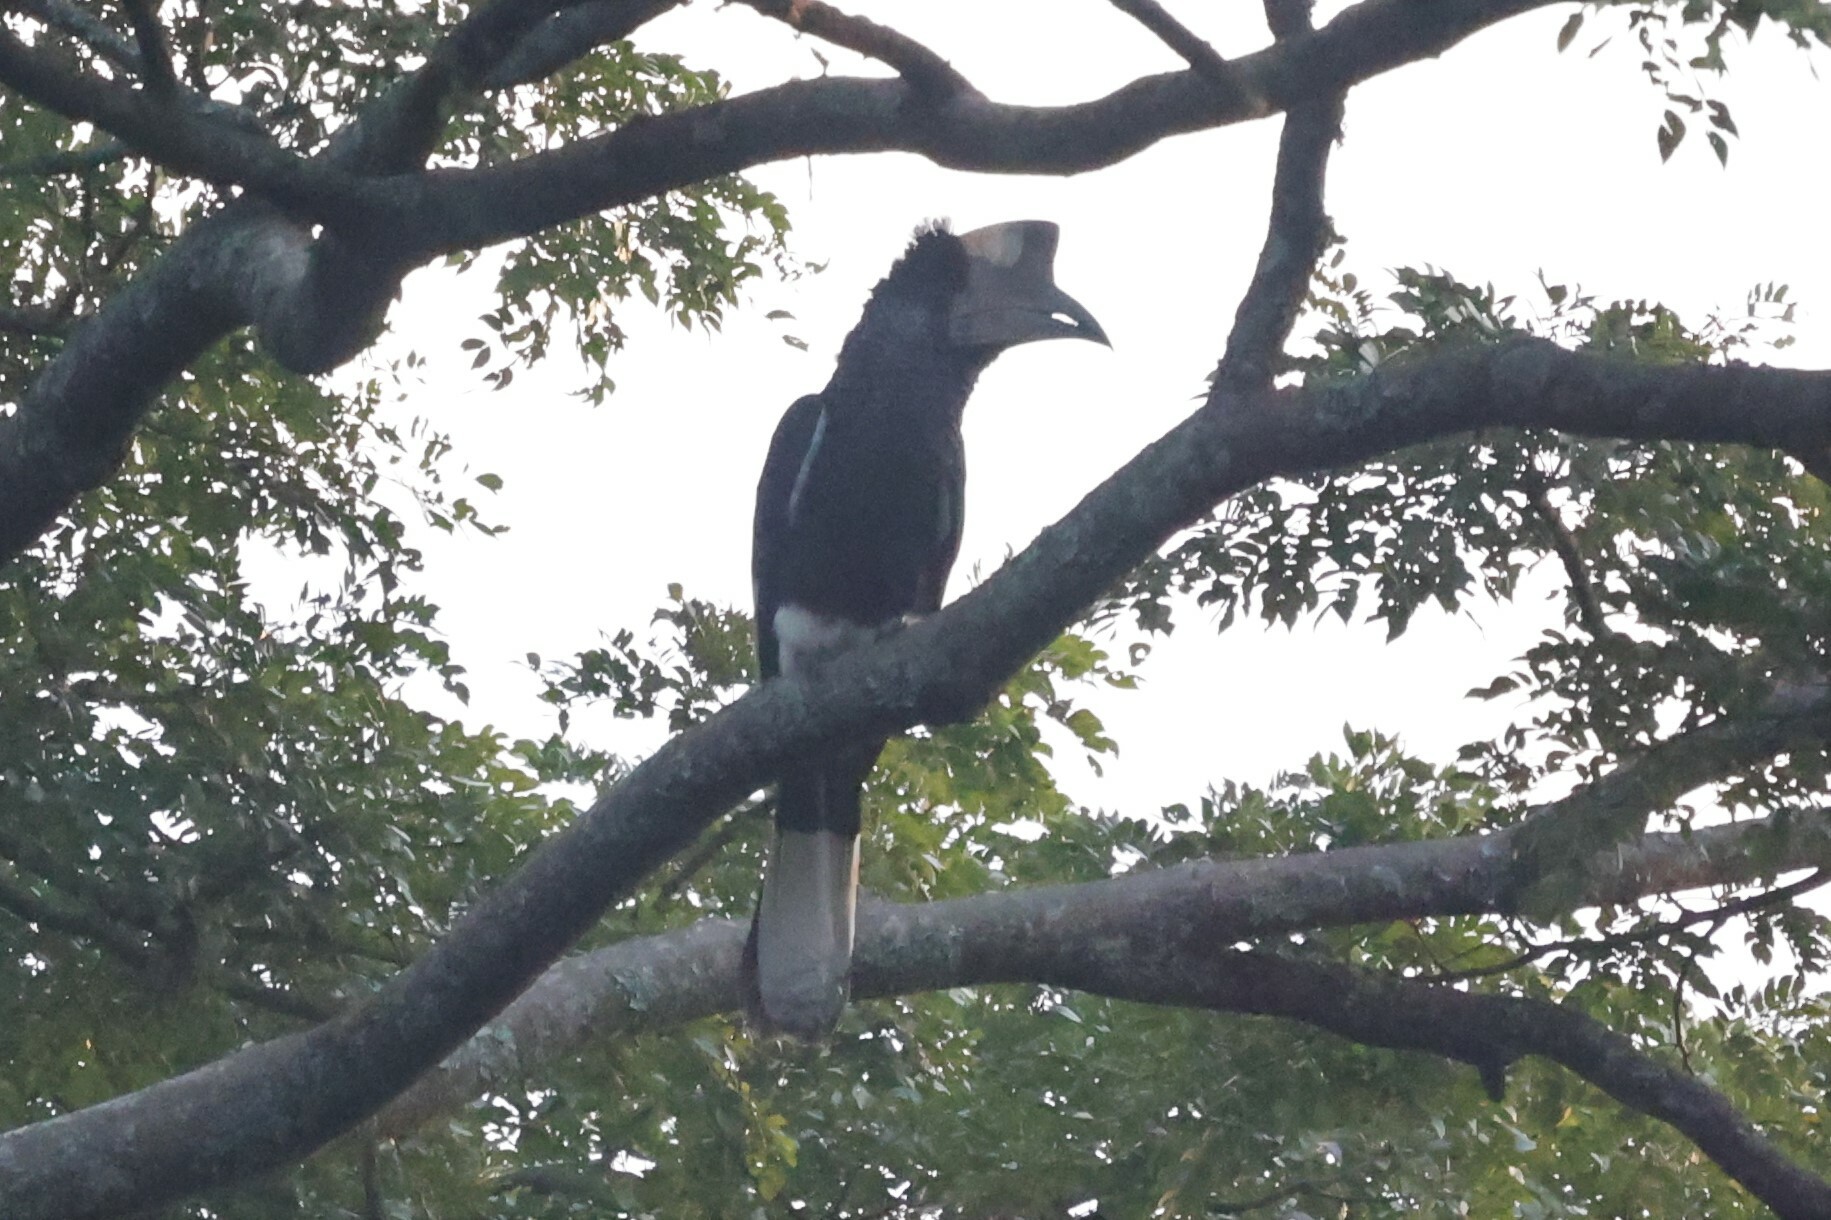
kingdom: Animalia
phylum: Chordata
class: Aves
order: Bucerotiformes
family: Bucerotidae
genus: Bycanistes
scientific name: Bycanistes subcylindricus
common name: Black-and-white-casqued hornbill
